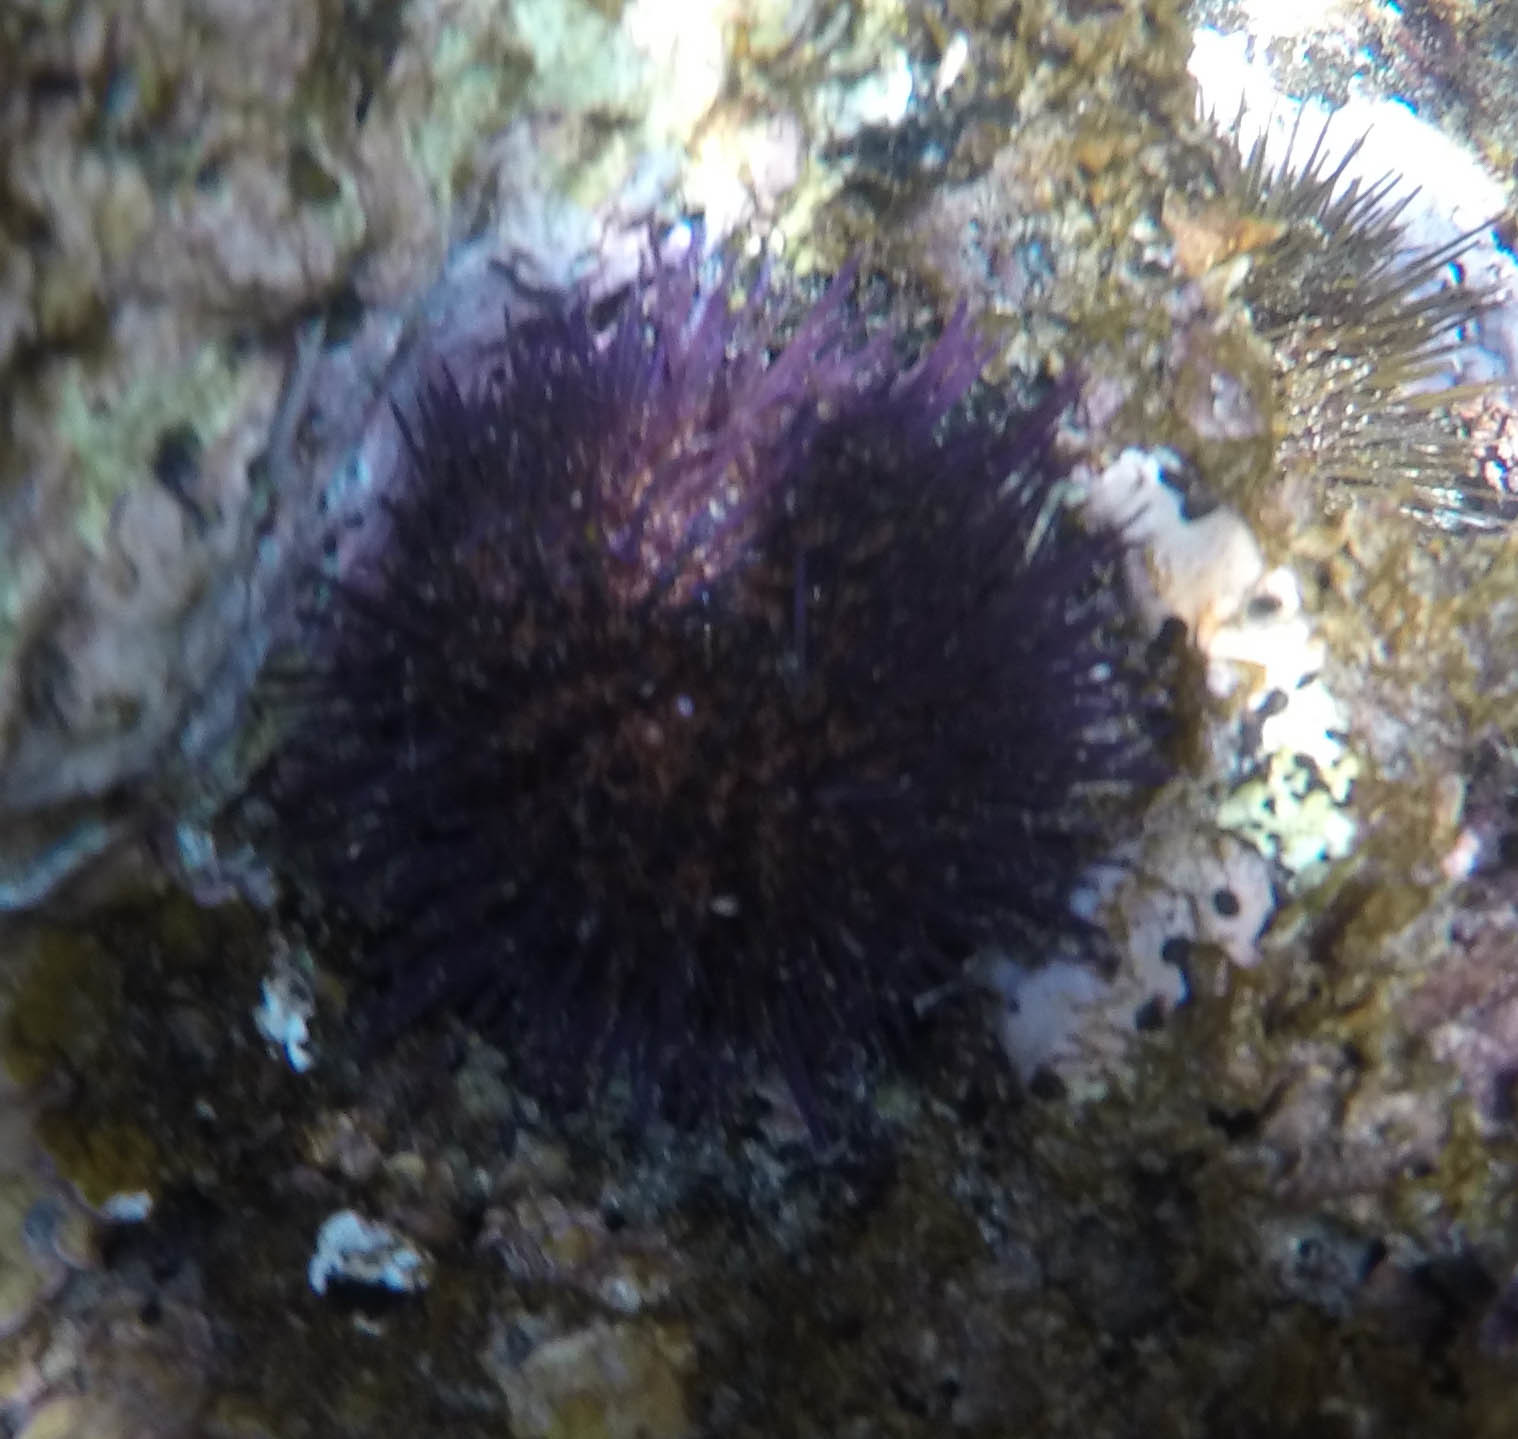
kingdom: Animalia
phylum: Echinodermata
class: Echinoidea
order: Camarodonta
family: Parechinidae
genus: Paracentrotus
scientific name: Paracentrotus lividus
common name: Purple sea urchin
